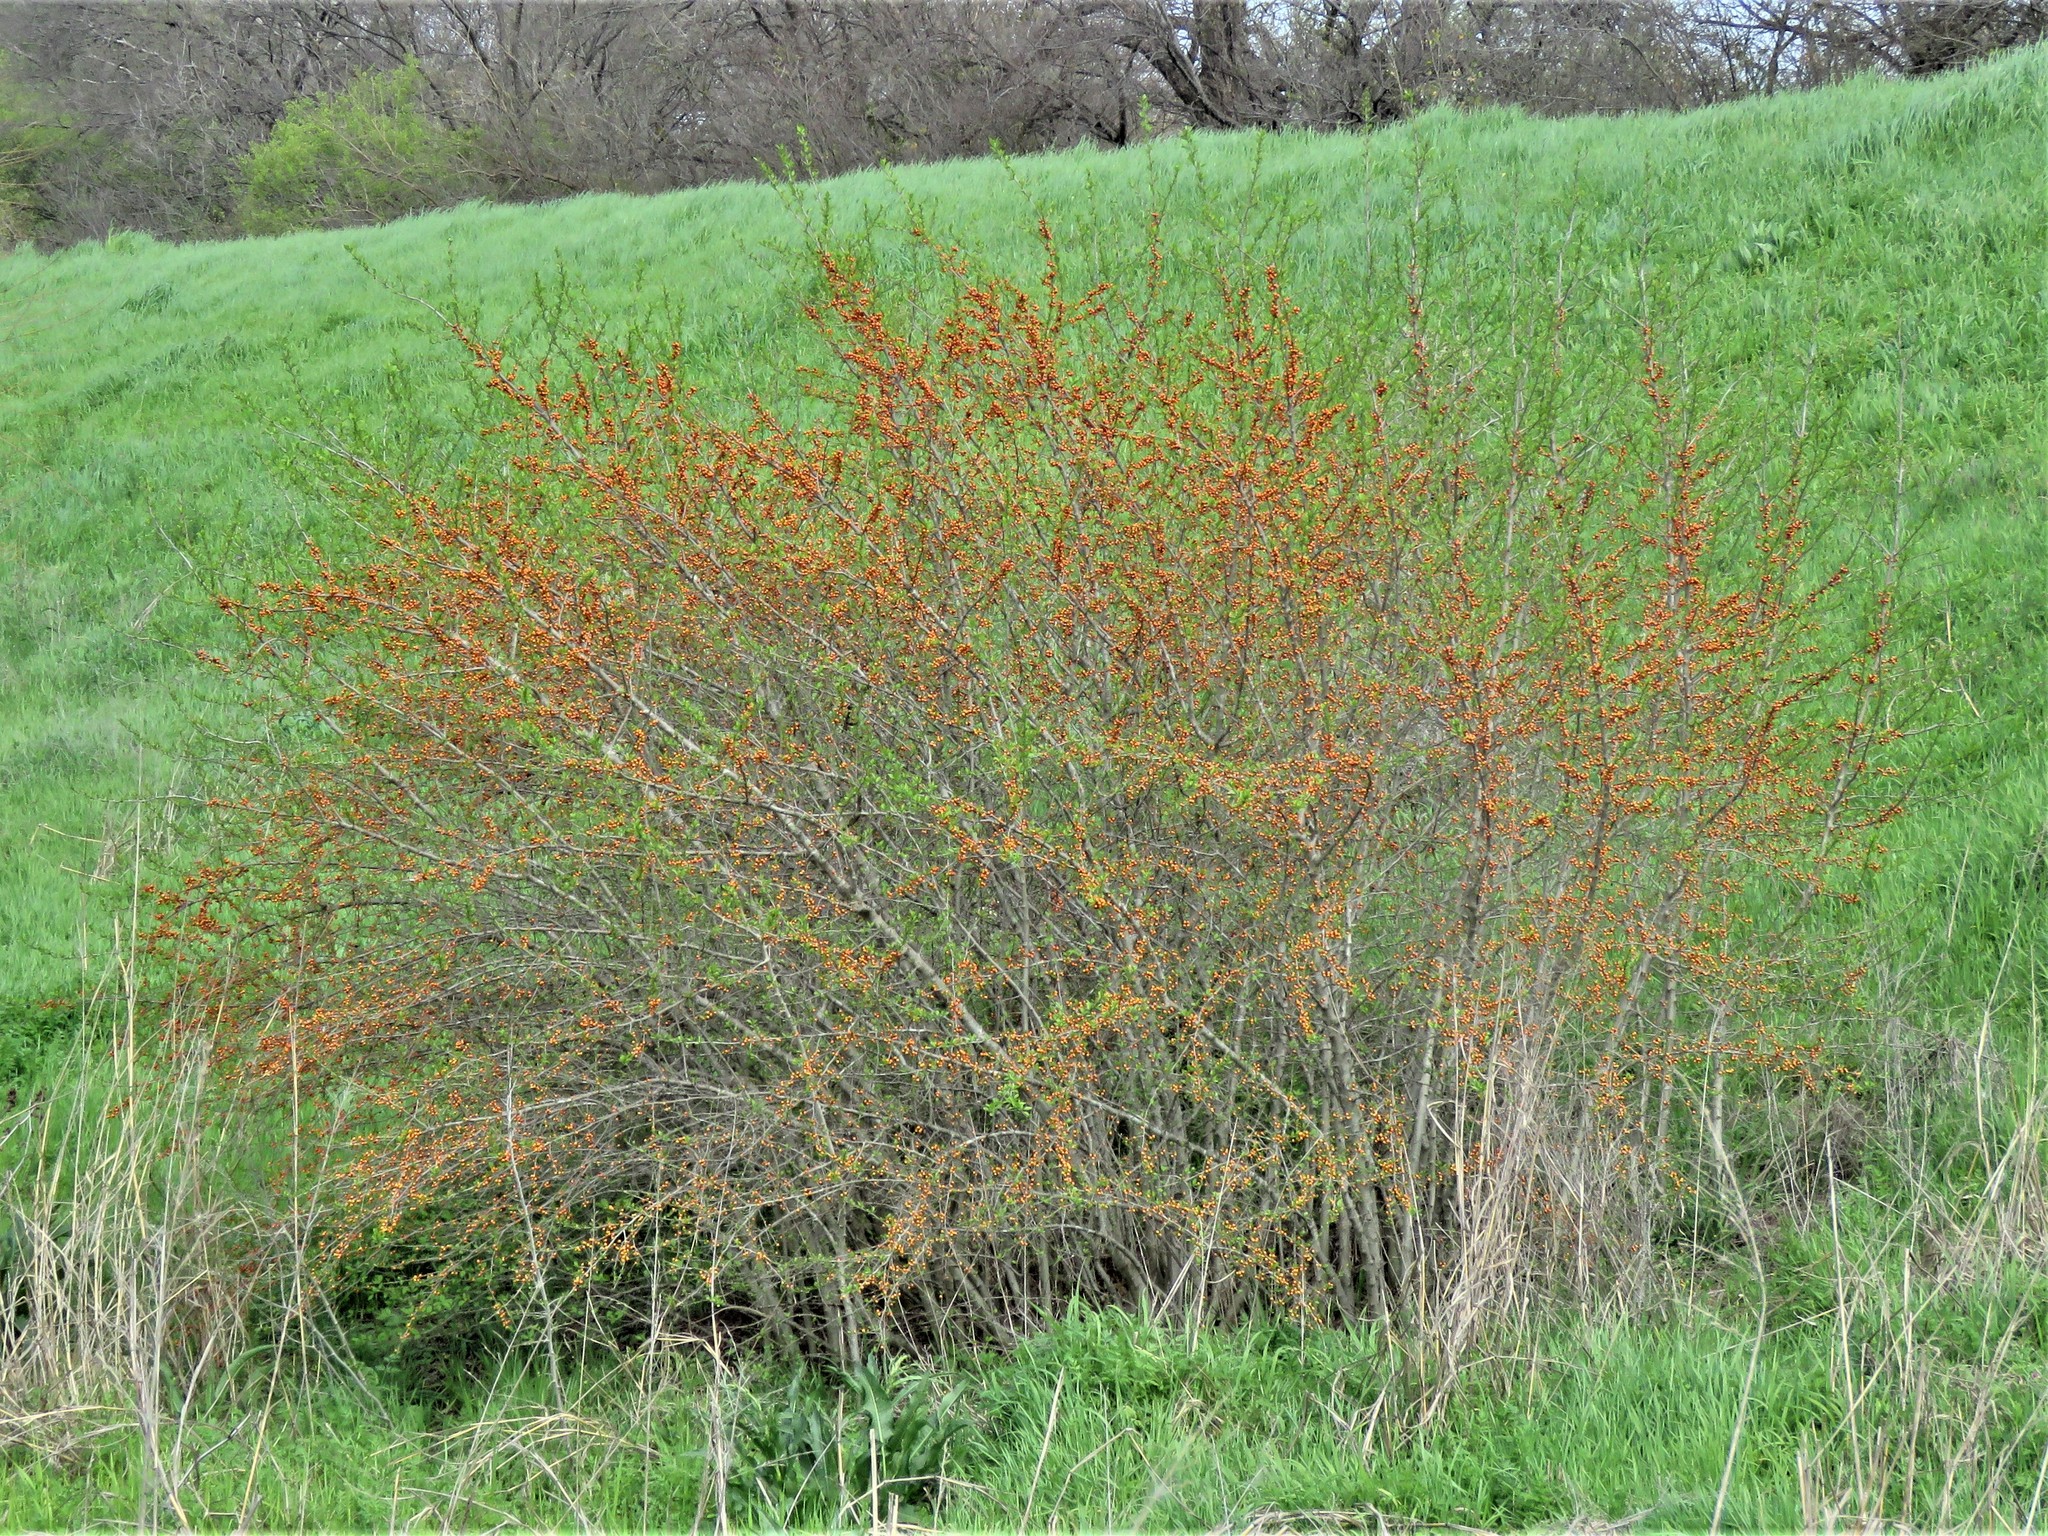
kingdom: Plantae
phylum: Tracheophyta
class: Magnoliopsida
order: Aquifoliales
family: Aquifoliaceae
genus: Ilex
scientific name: Ilex decidua
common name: Possum-haw
